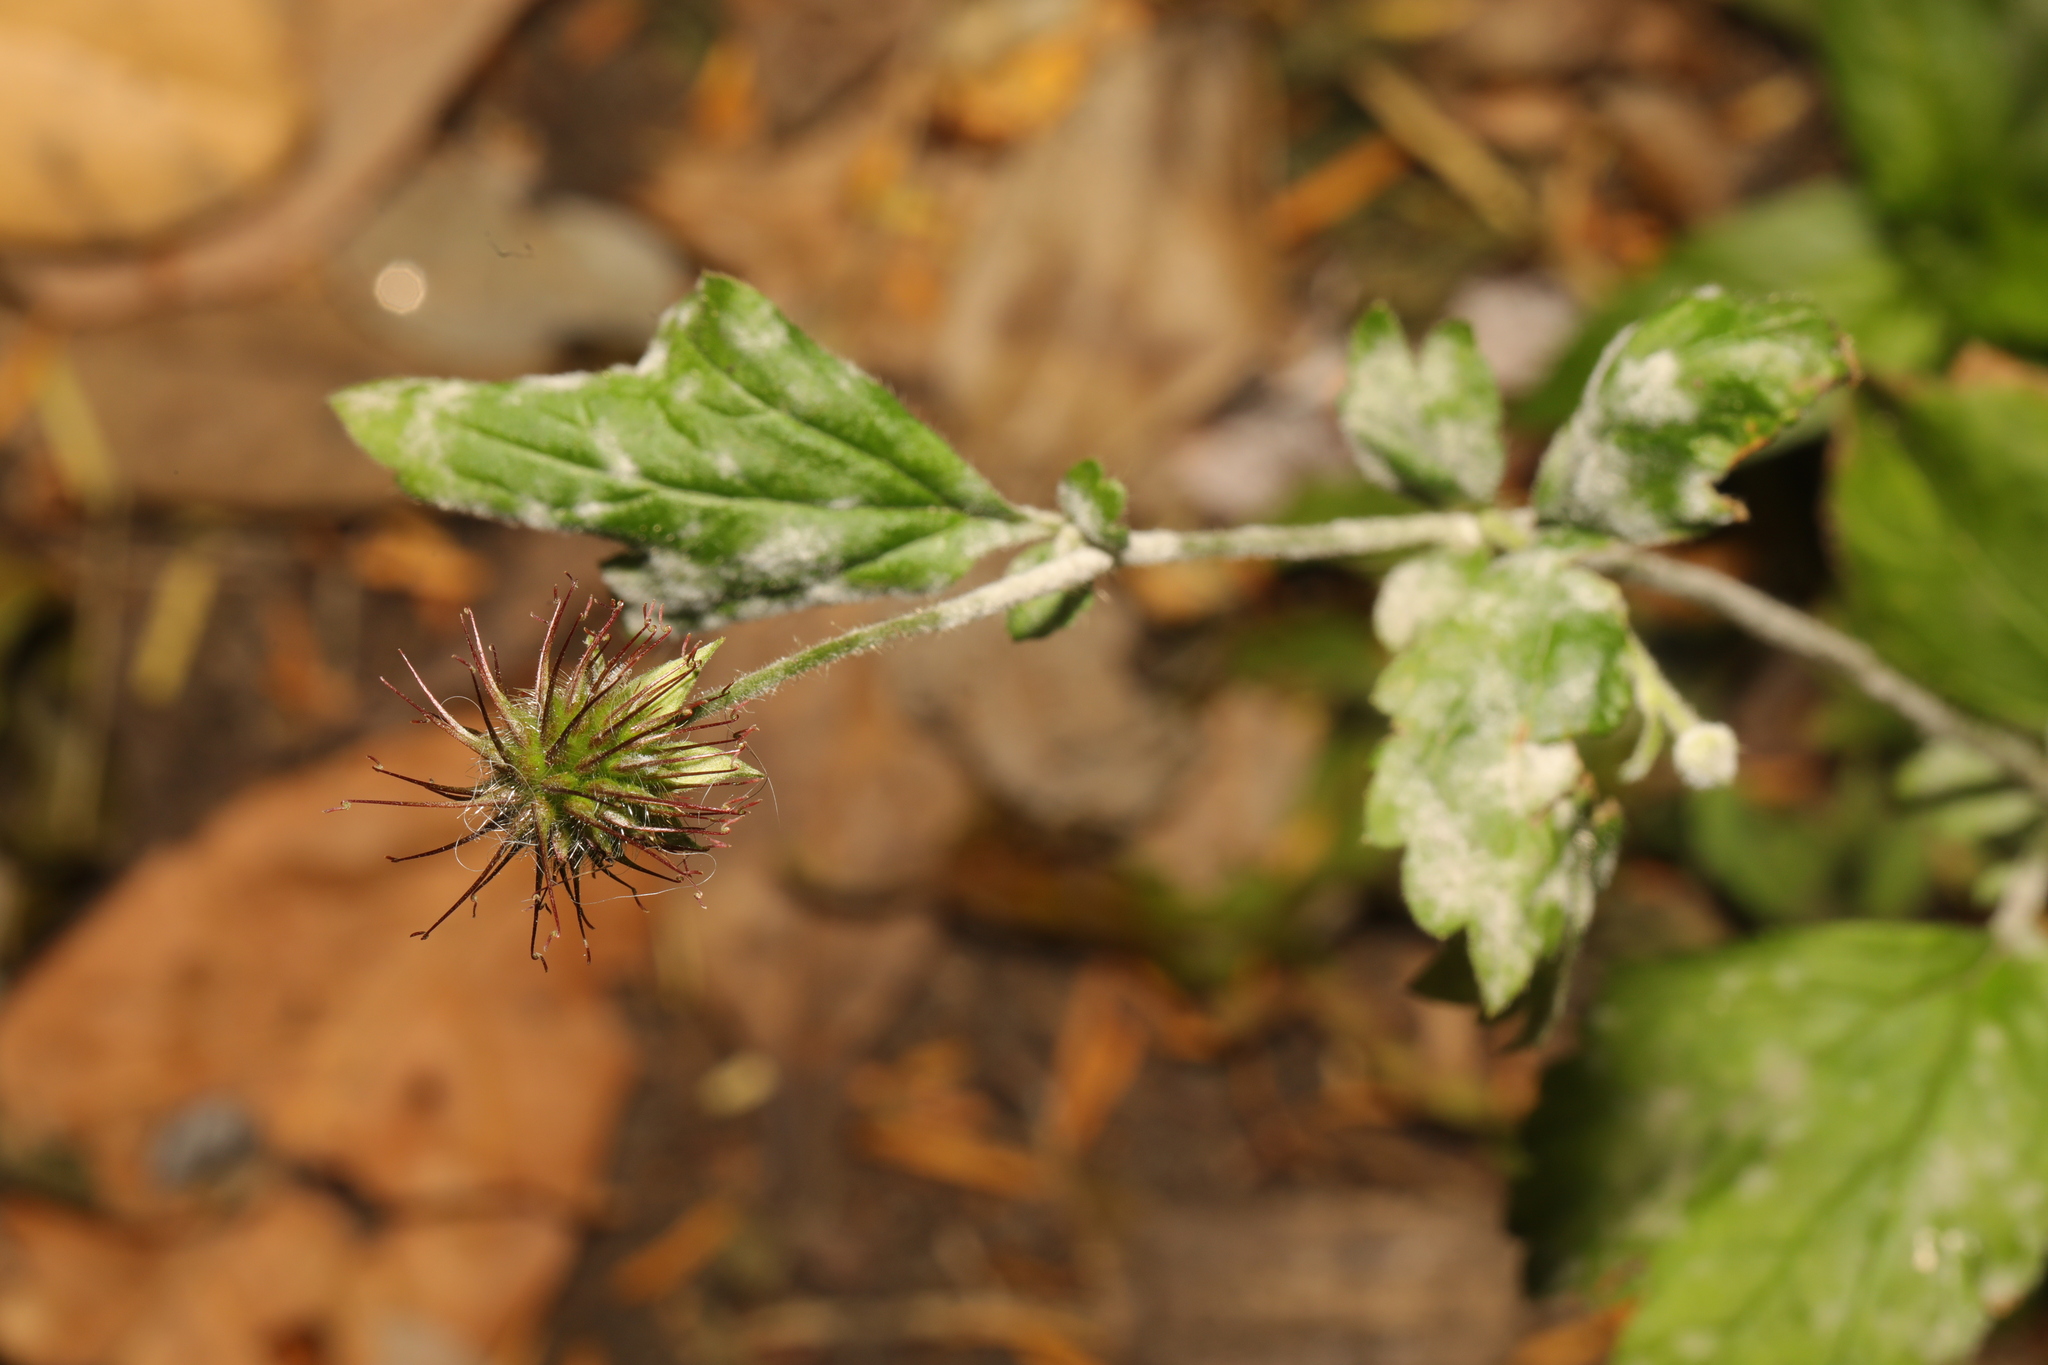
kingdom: Plantae
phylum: Tracheophyta
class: Magnoliopsida
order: Rosales
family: Rosaceae
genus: Geum
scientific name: Geum urbanum
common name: Wood avens
